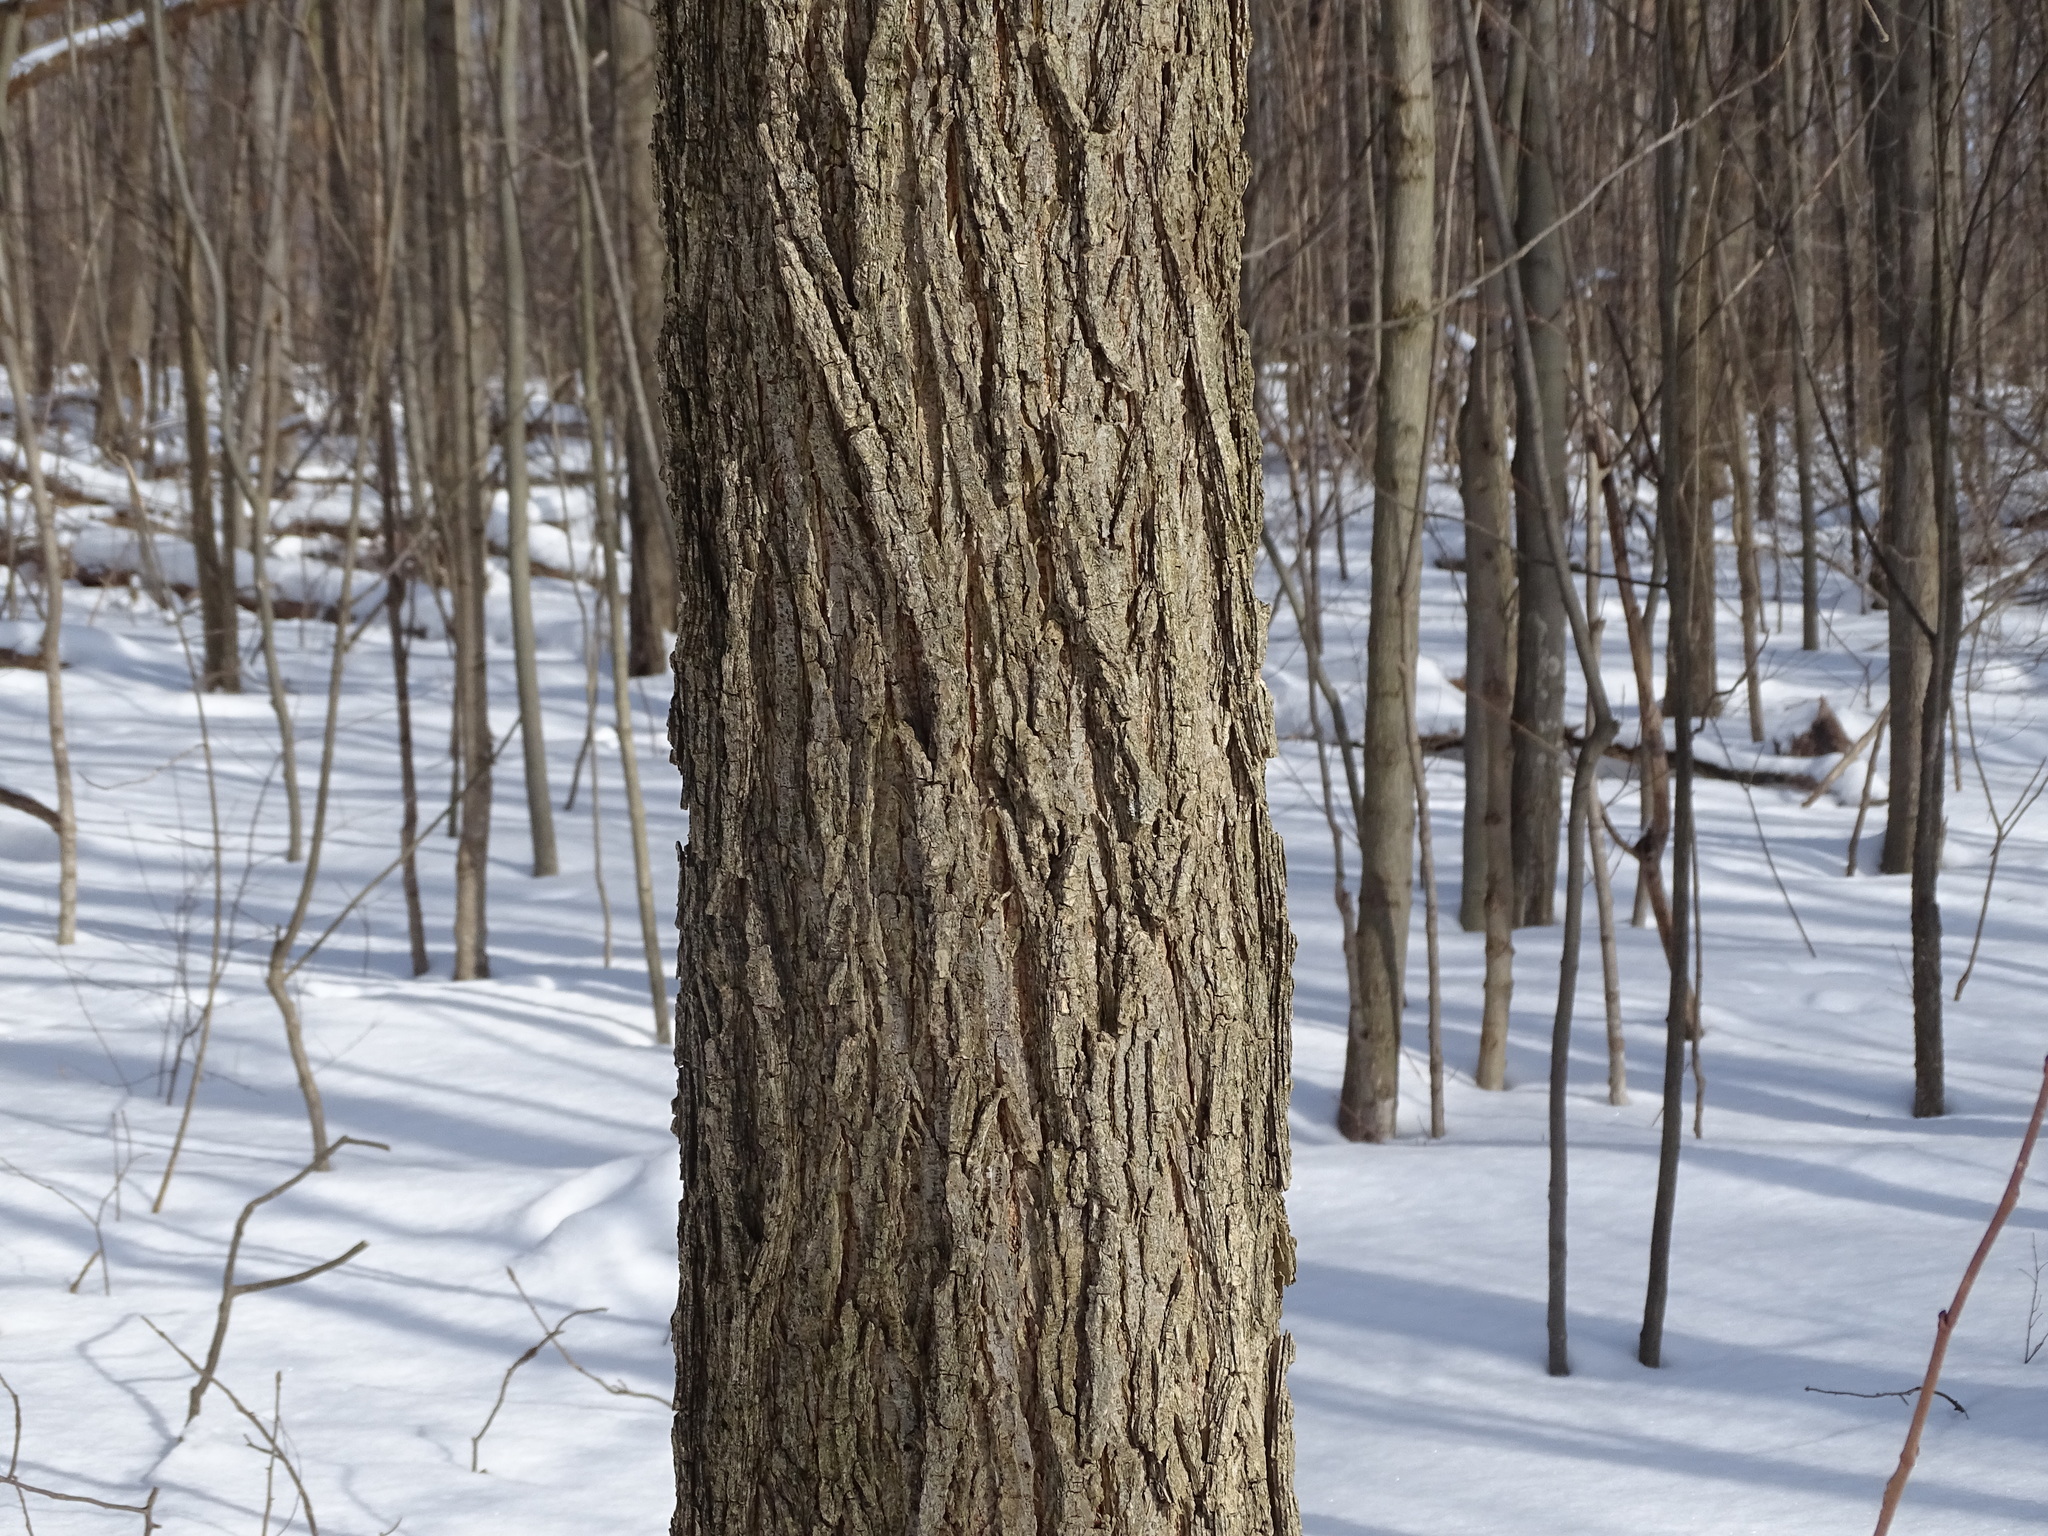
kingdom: Plantae
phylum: Tracheophyta
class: Magnoliopsida
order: Rosales
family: Ulmaceae
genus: Ulmus
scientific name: Ulmus americana
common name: American elm
